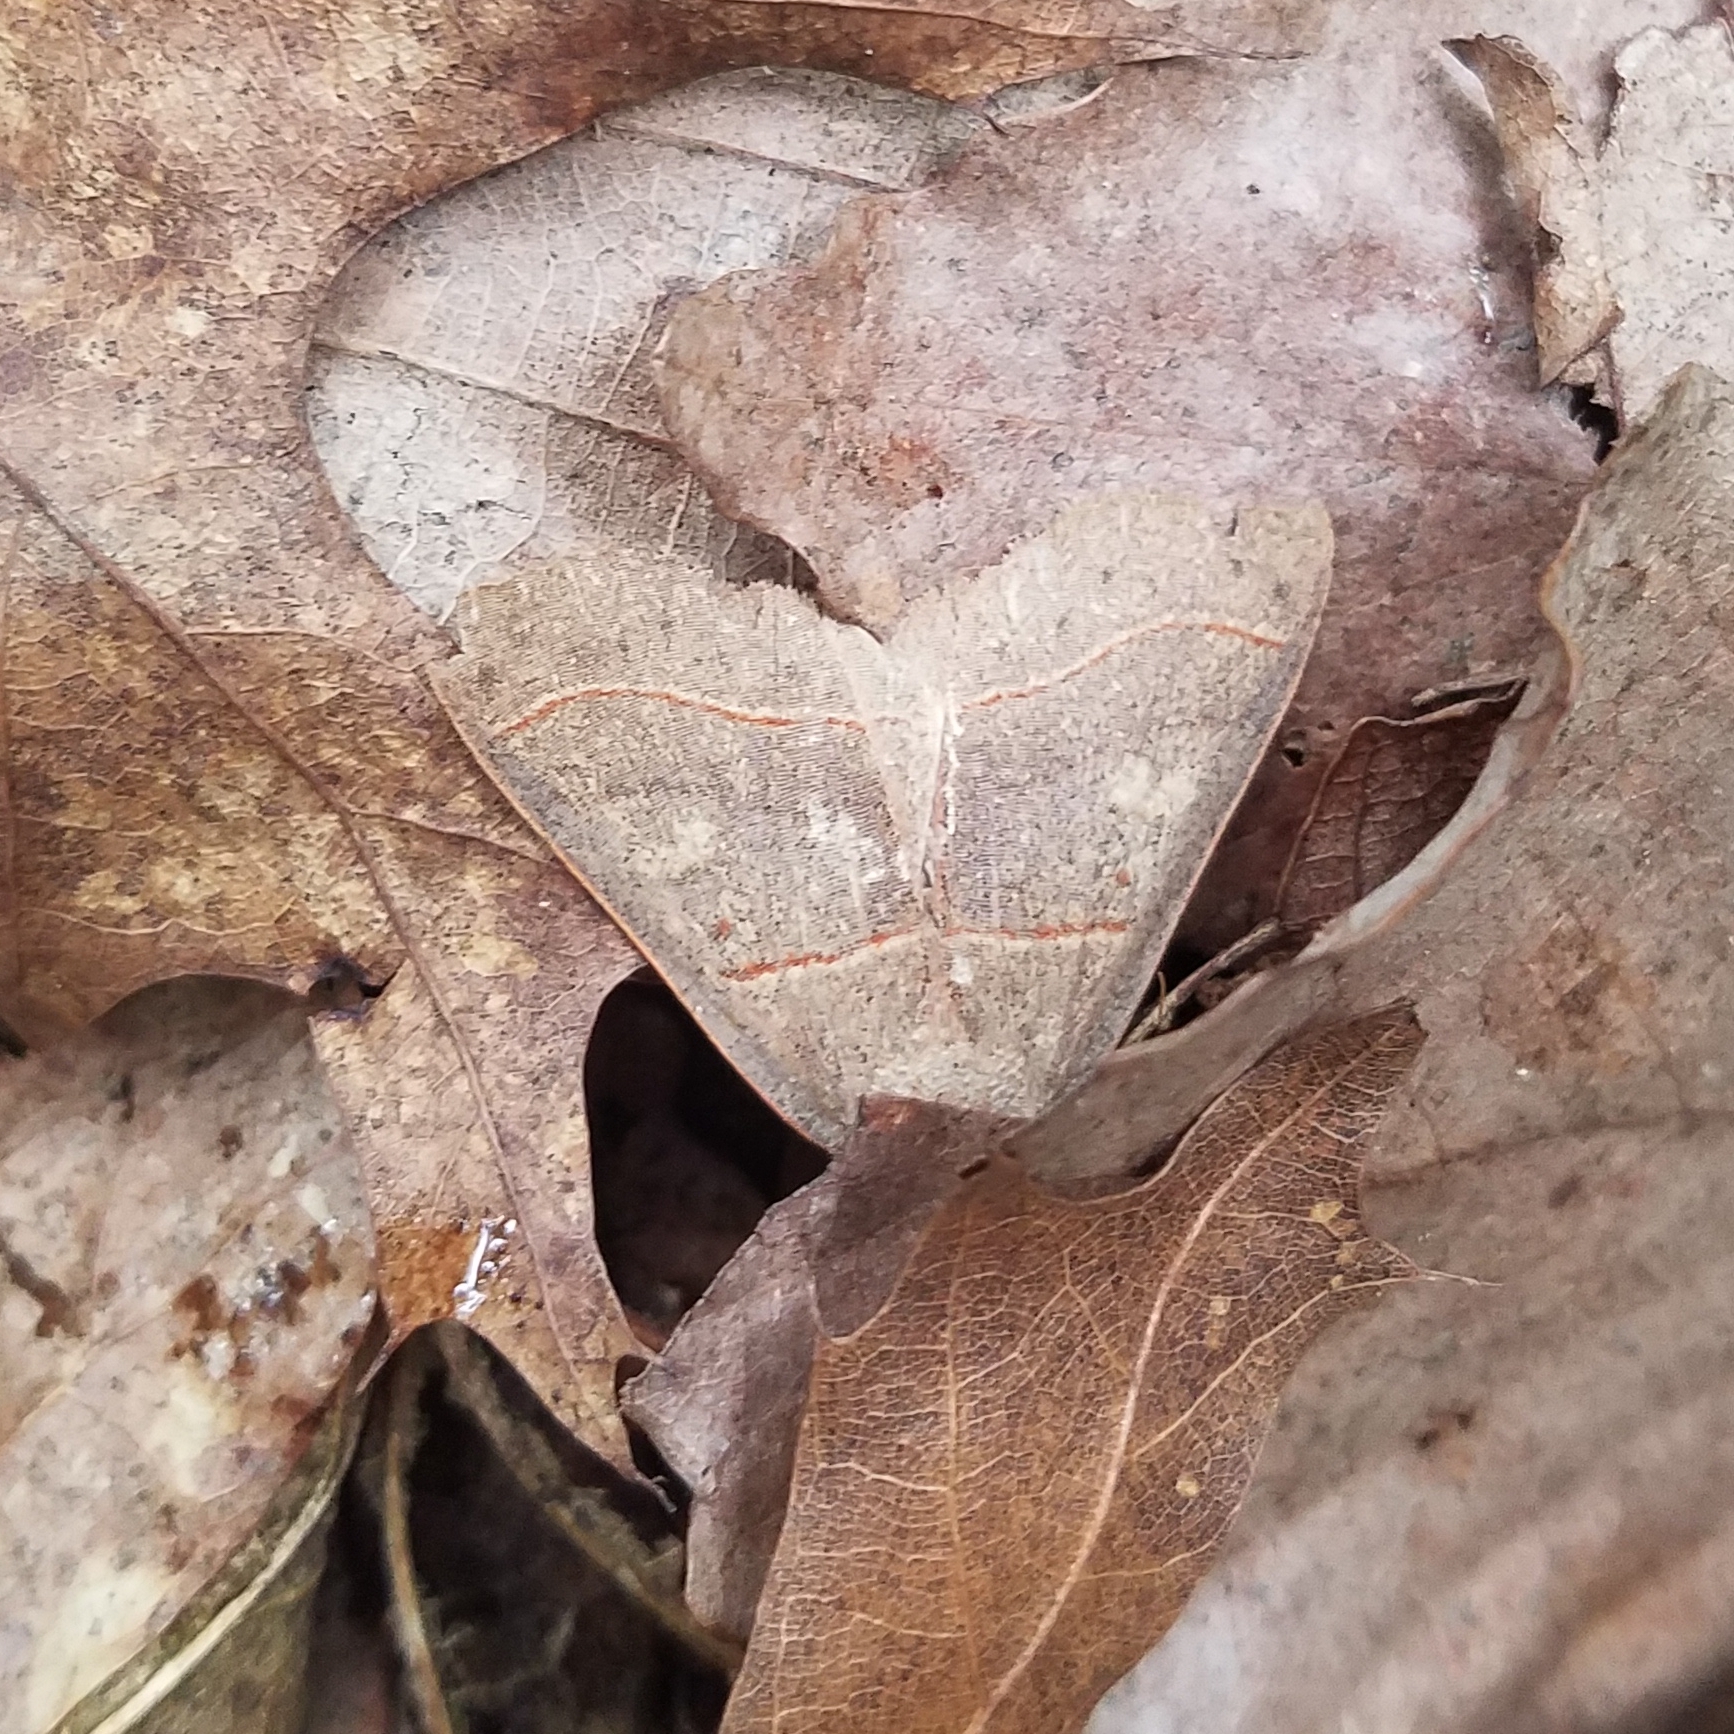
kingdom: Animalia
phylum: Arthropoda
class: Insecta
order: Lepidoptera
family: Erebidae
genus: Panopoda
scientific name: Panopoda rufimargo
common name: Red-lined panopoda moth
